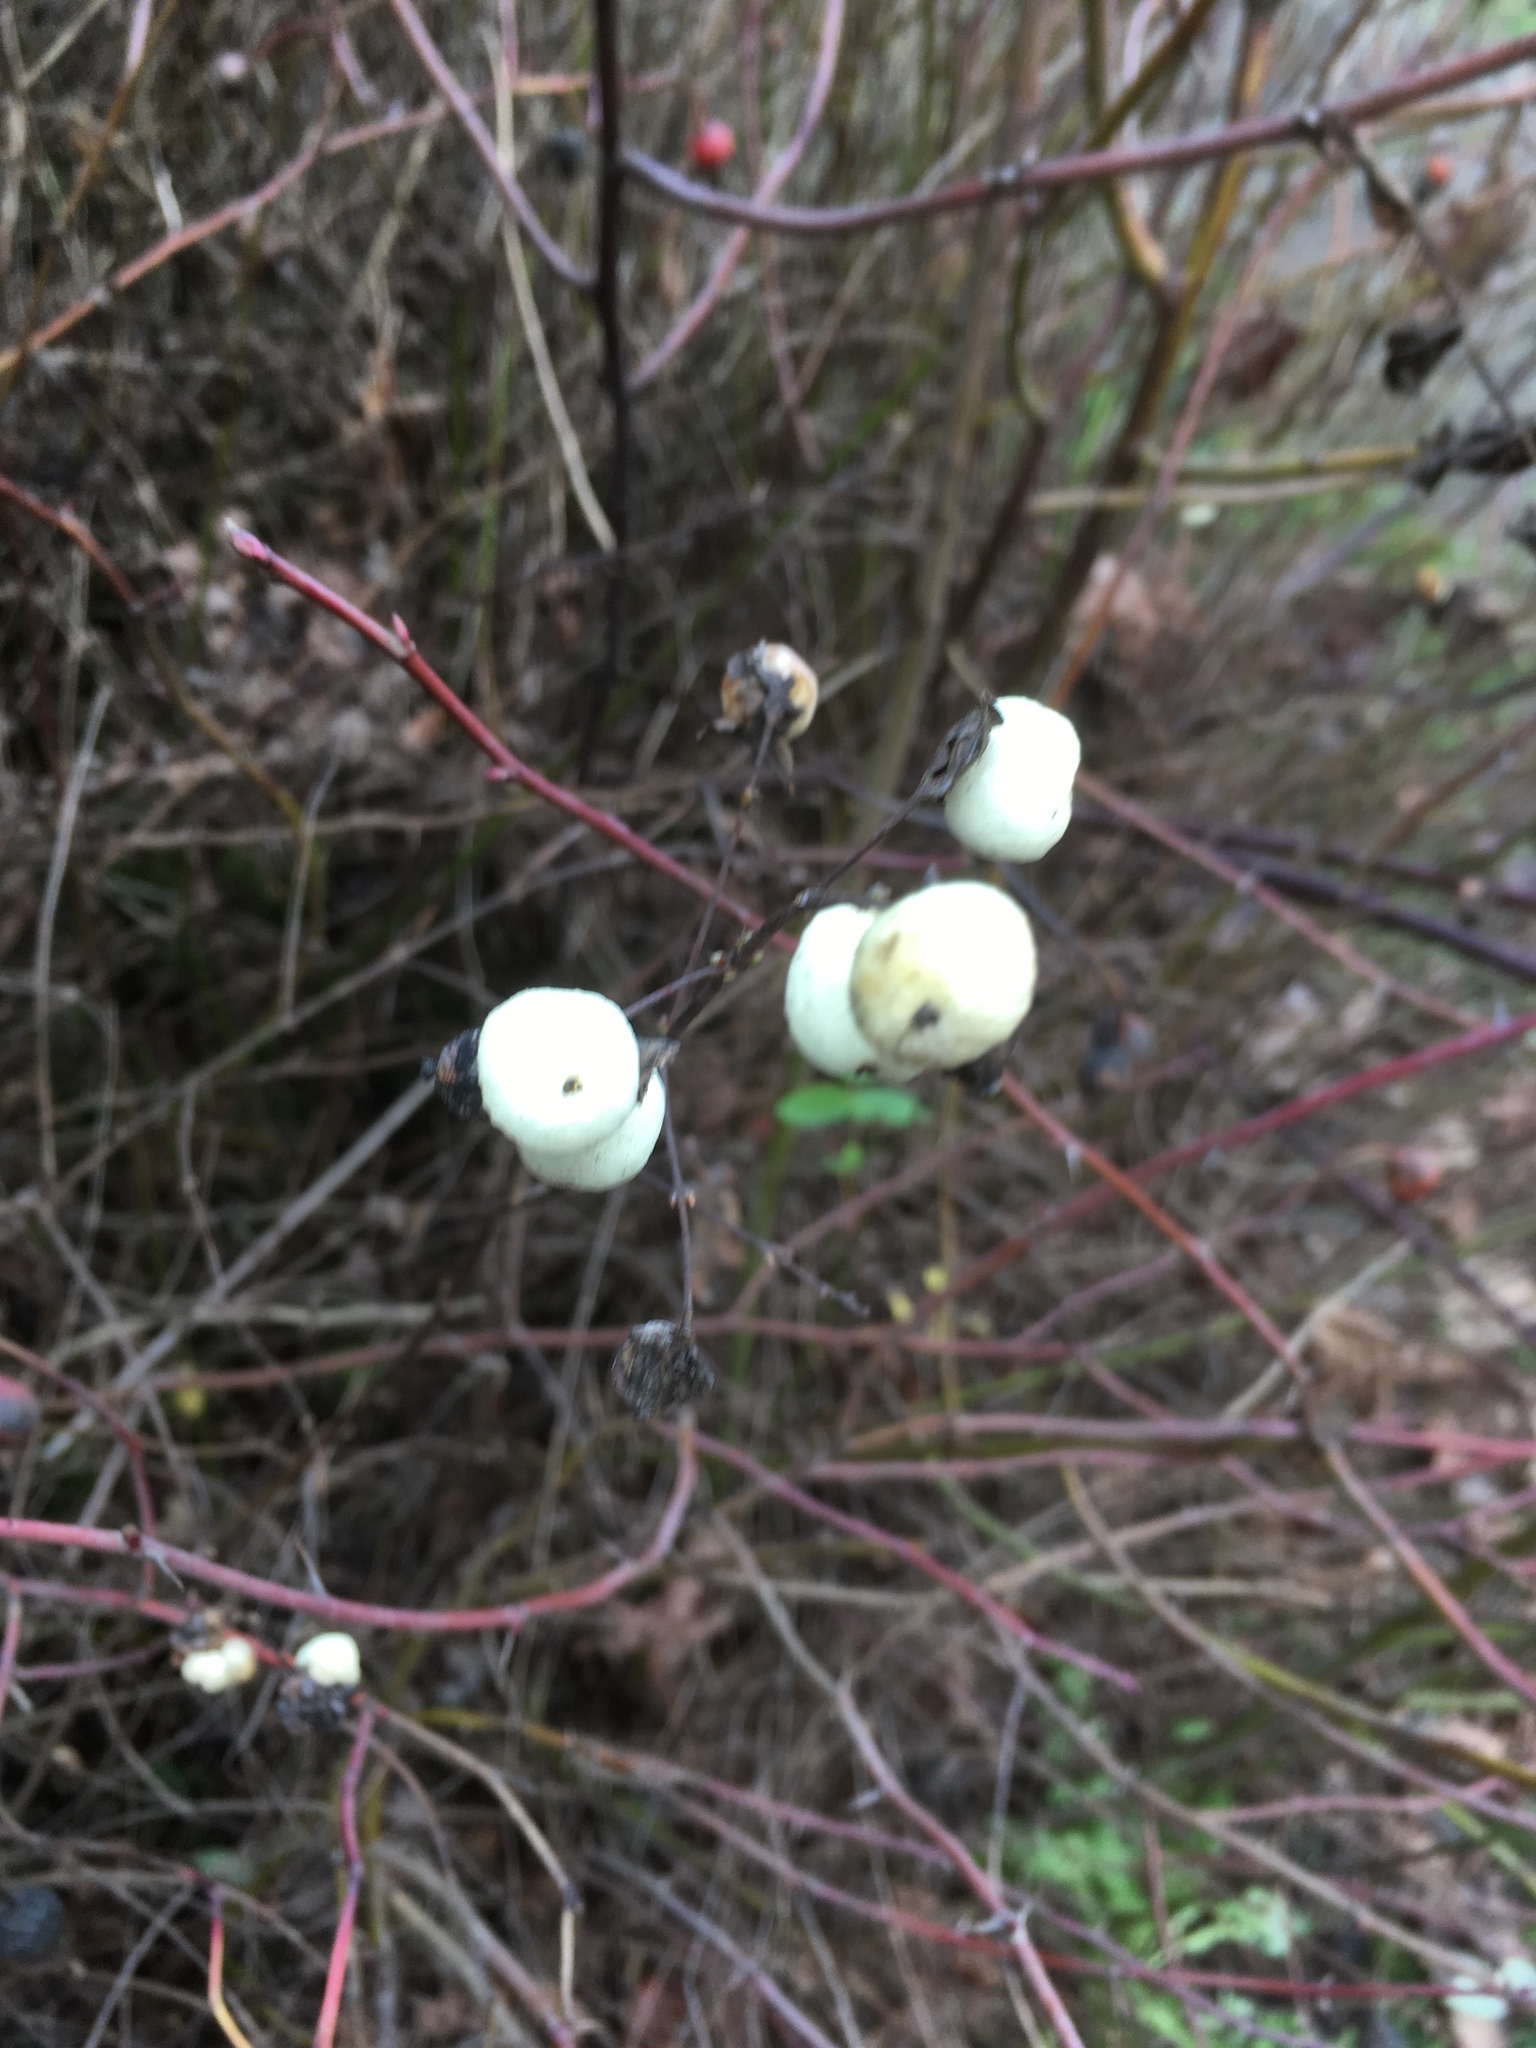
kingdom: Plantae
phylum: Tracheophyta
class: Magnoliopsida
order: Dipsacales
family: Caprifoliaceae
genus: Symphoricarpos
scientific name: Symphoricarpos albus
